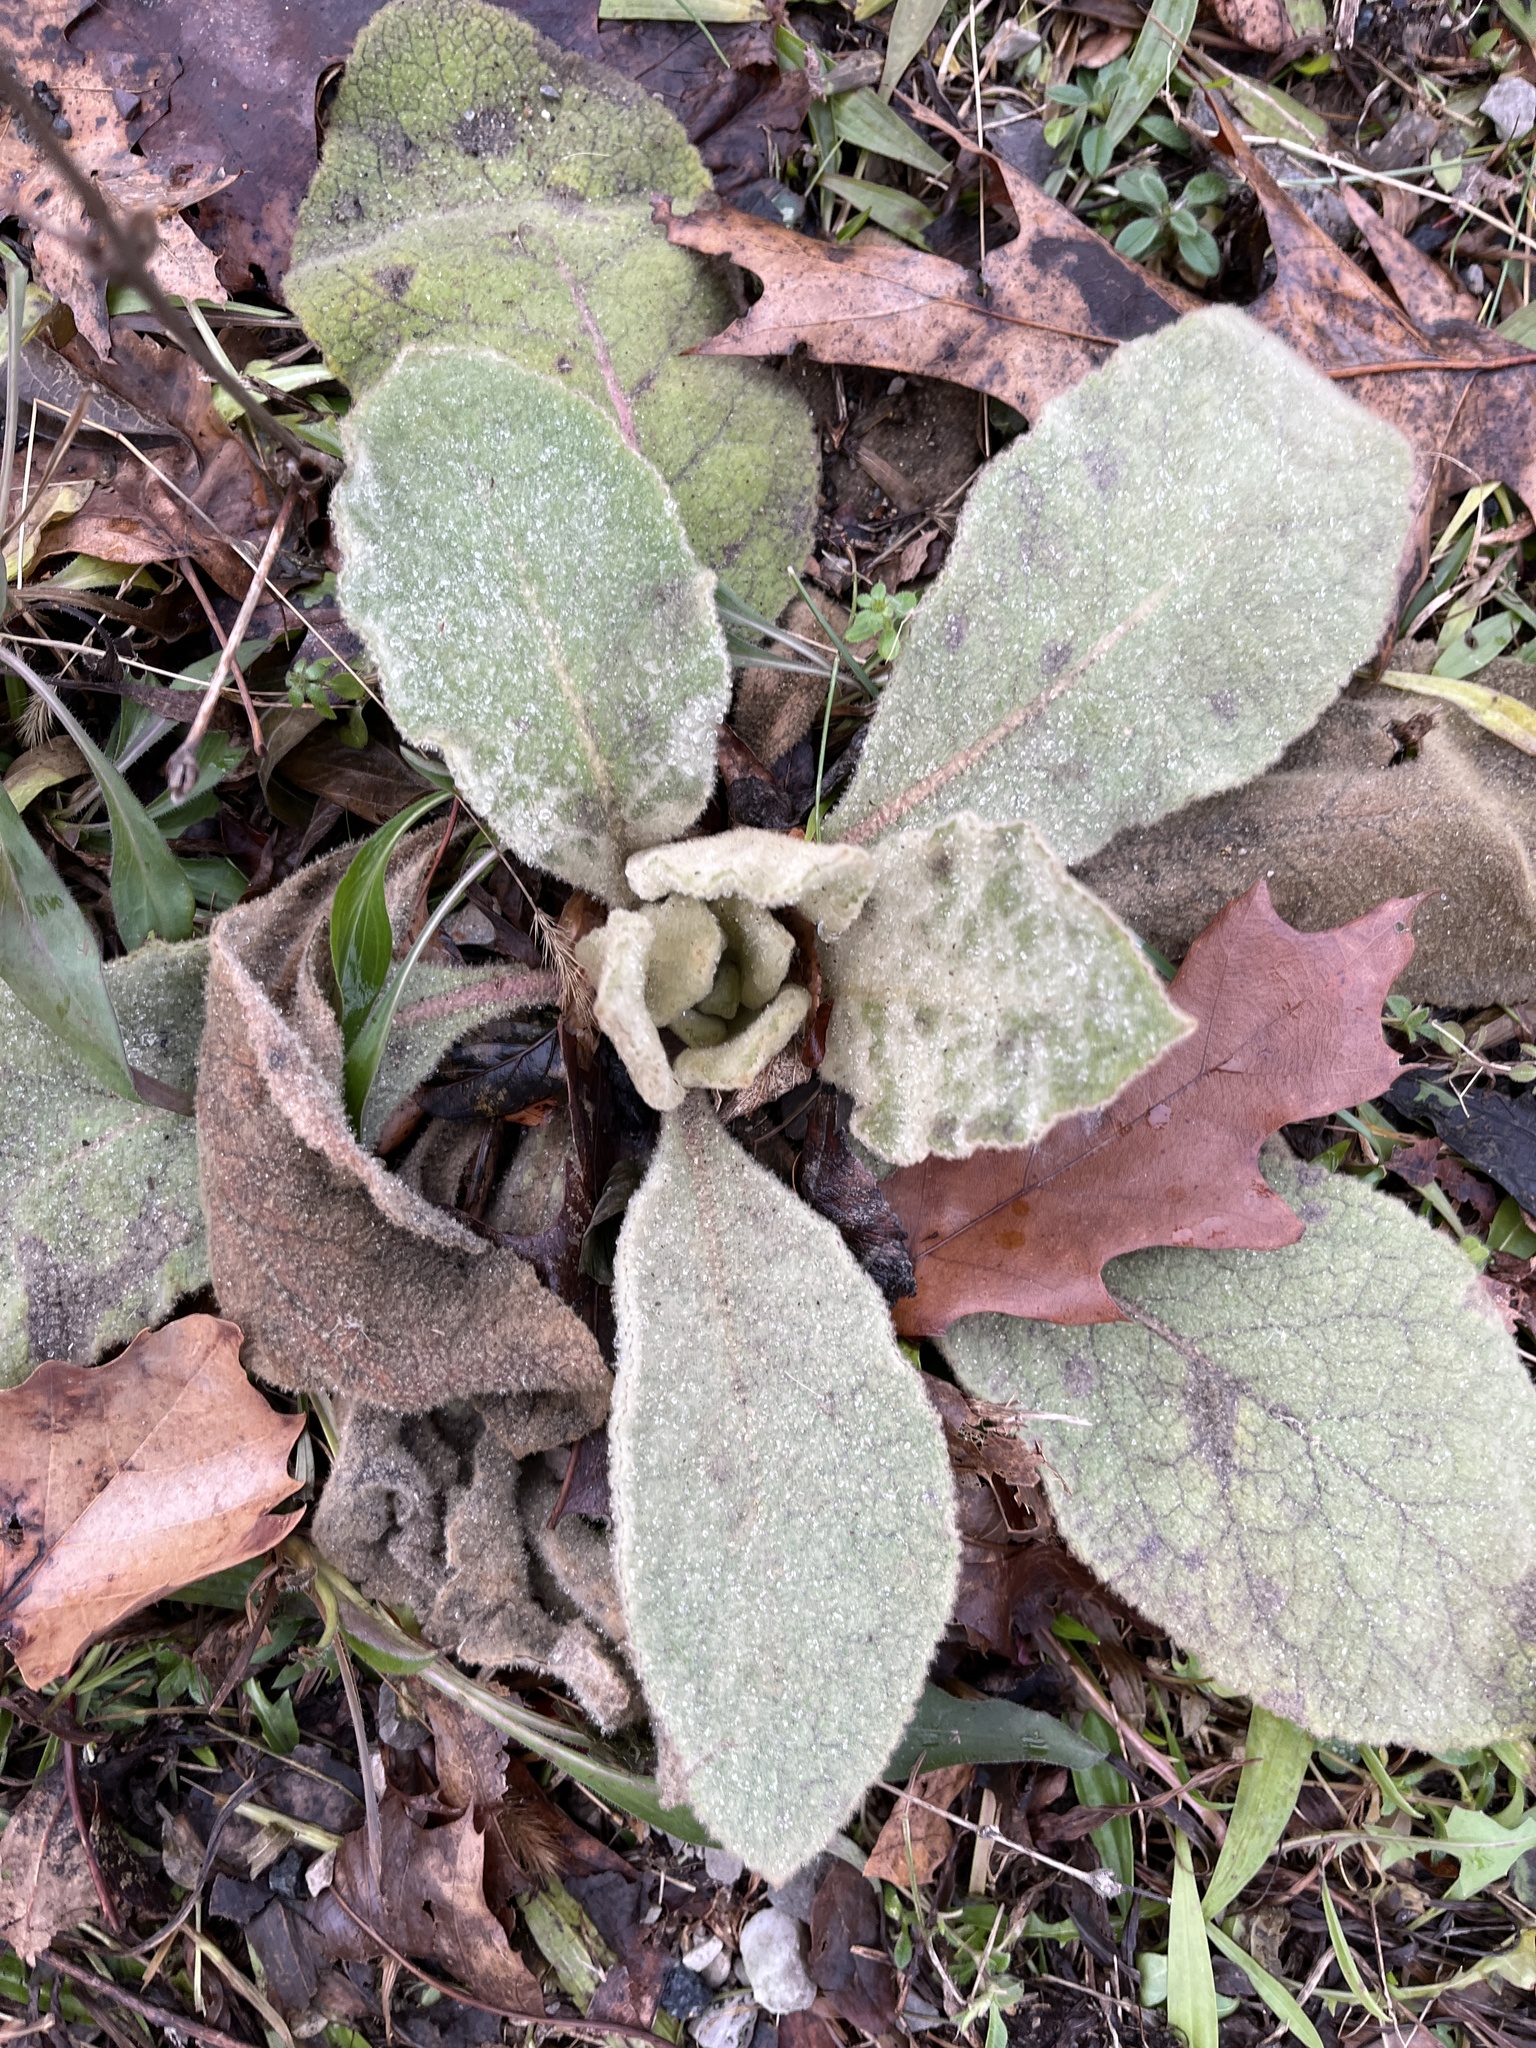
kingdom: Plantae
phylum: Tracheophyta
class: Magnoliopsida
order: Lamiales
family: Scrophulariaceae
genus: Verbascum
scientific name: Verbascum thapsus
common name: Common mullein
